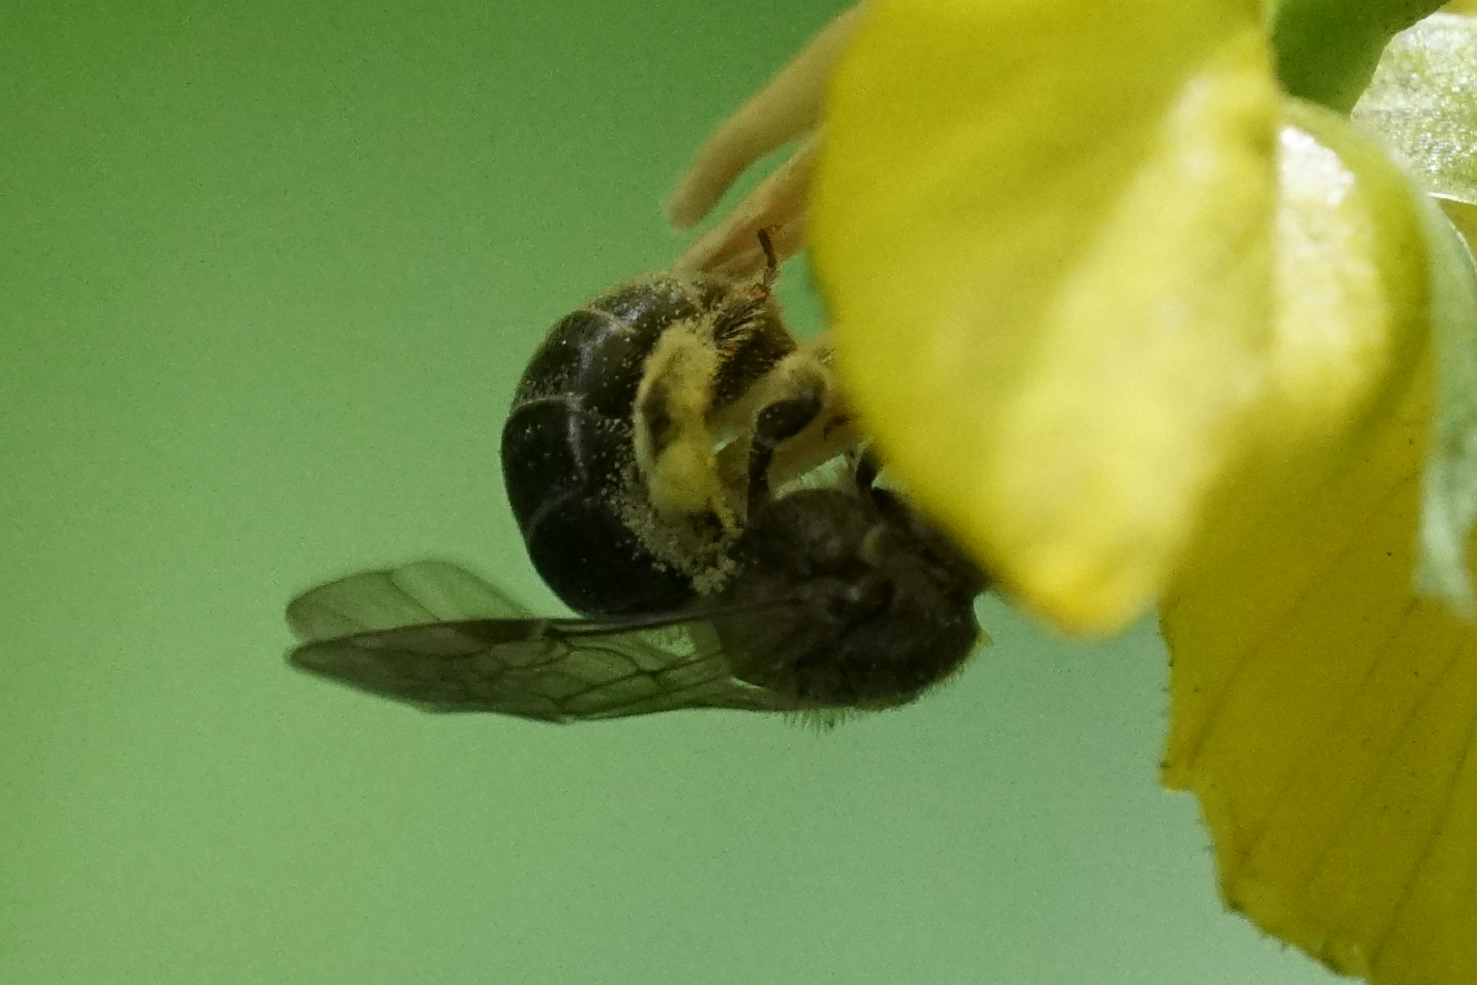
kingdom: Animalia
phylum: Arthropoda
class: Insecta
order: Hymenoptera
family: Halictidae
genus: Dialictus
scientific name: Dialictus
